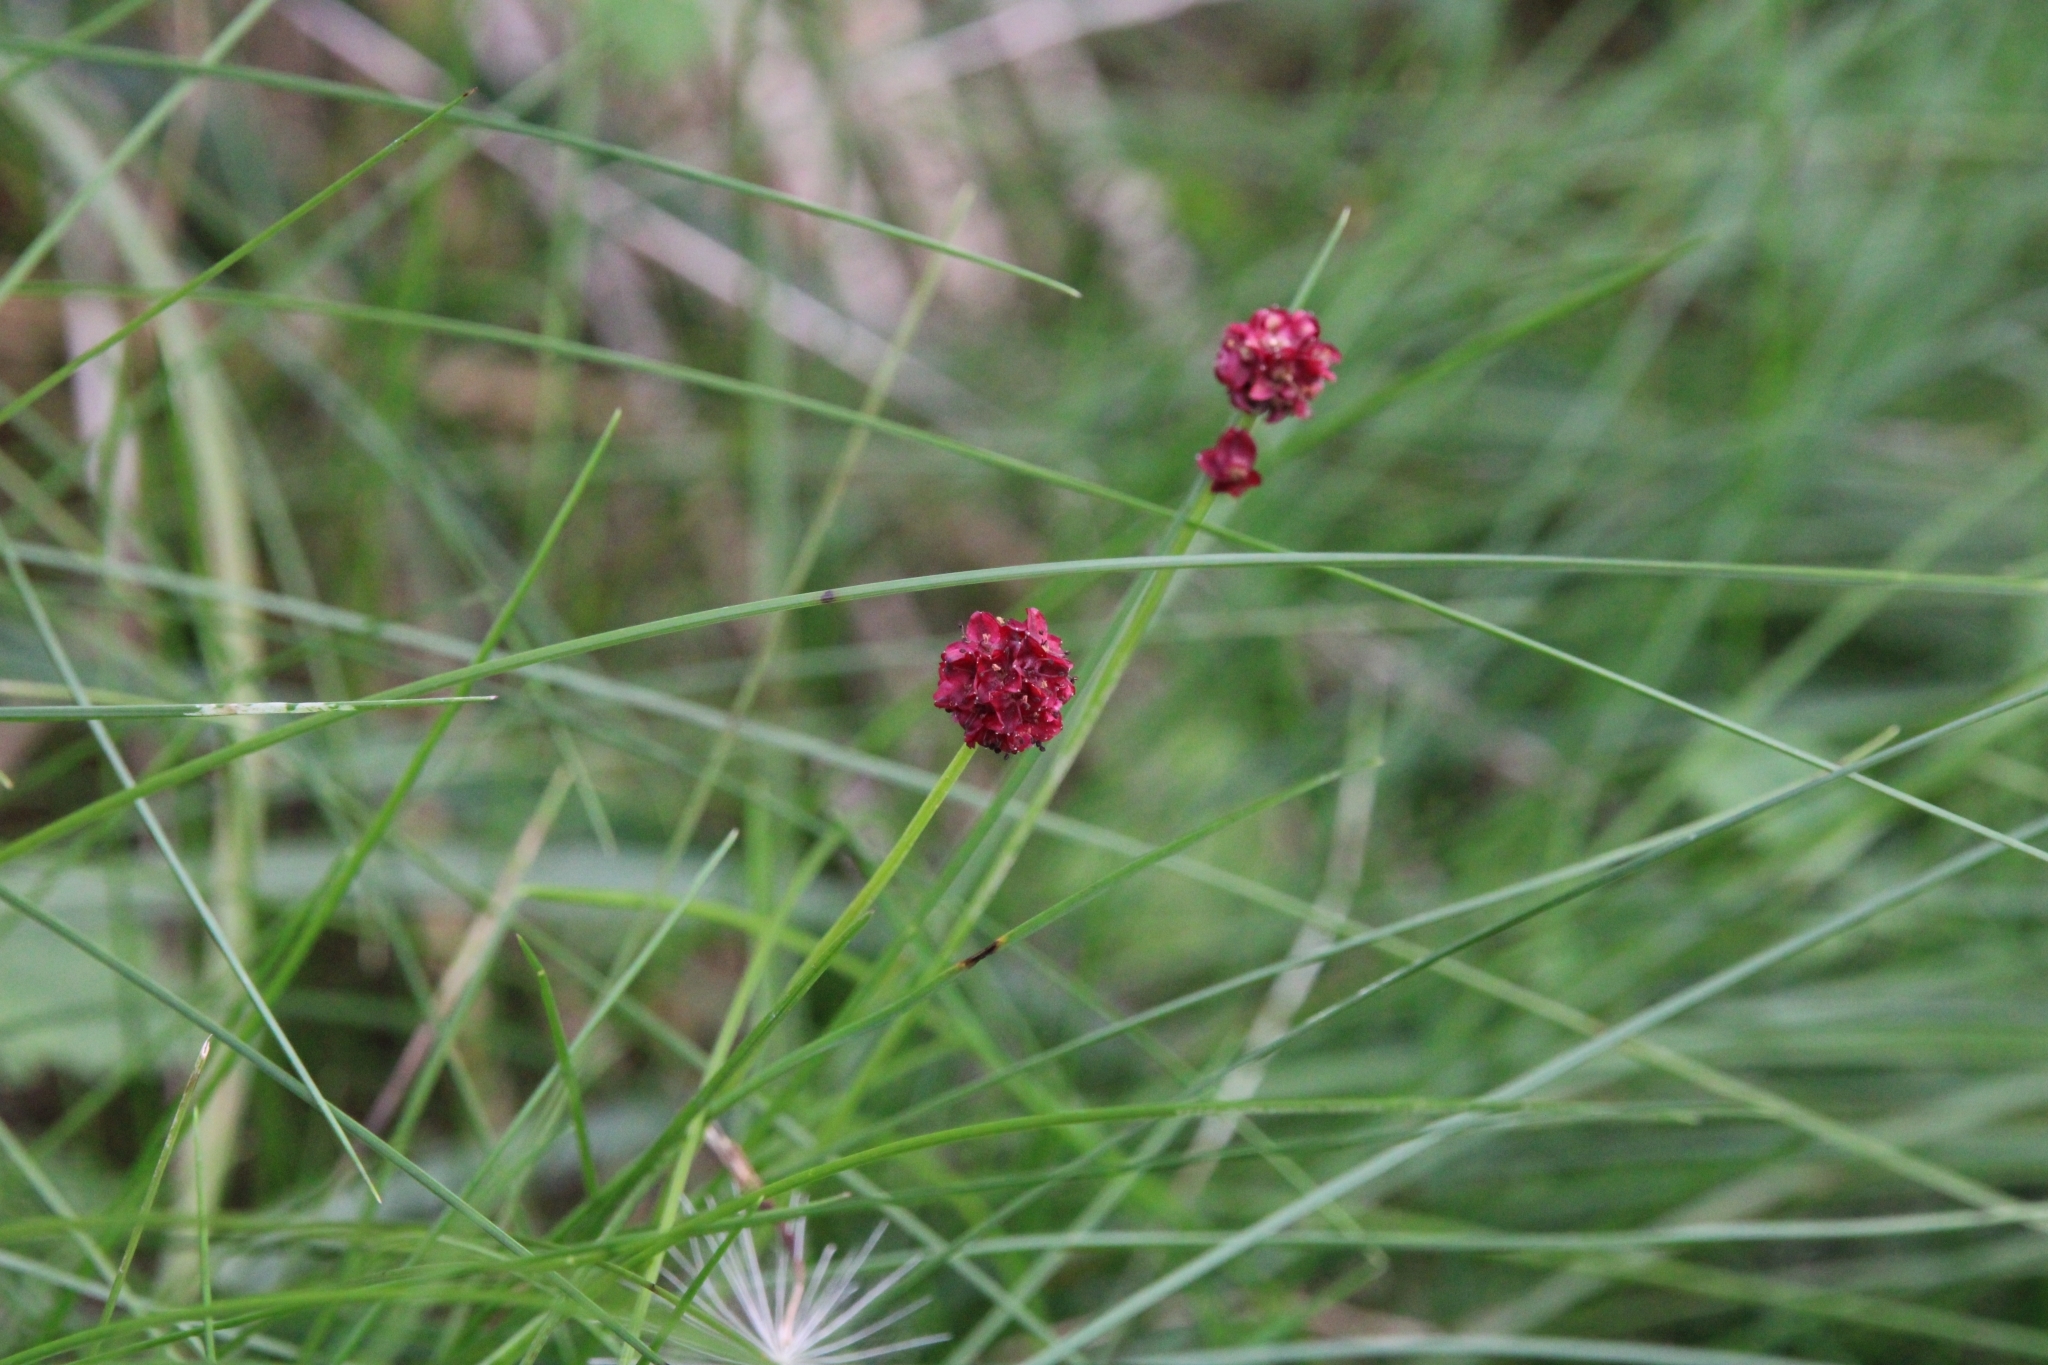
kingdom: Plantae
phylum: Tracheophyta
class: Magnoliopsida
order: Rosales
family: Rosaceae
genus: Sanguisorba
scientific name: Sanguisorba officinalis
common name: Great burnet
